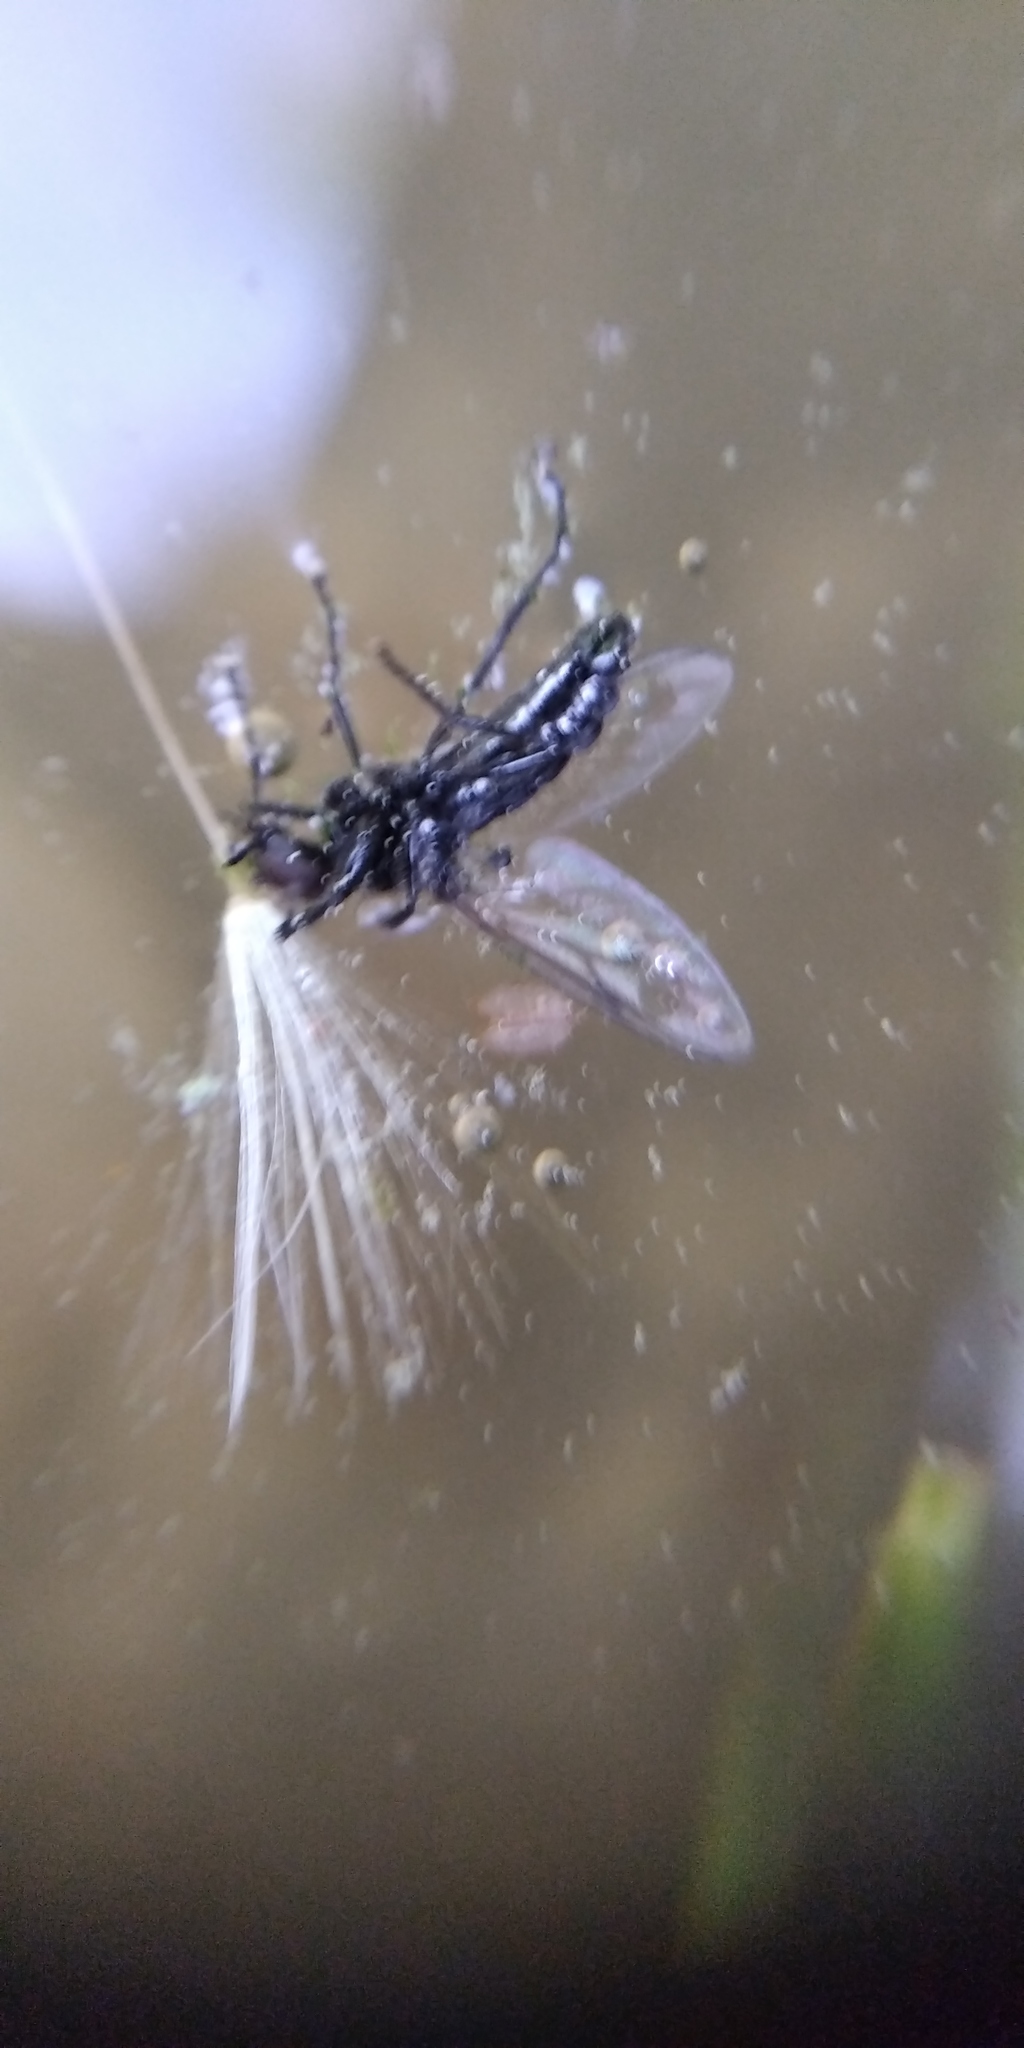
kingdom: Animalia
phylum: Arthropoda
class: Insecta
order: Diptera
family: Bibionidae
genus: Bibio
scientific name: Bibio marci
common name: St marks fly
